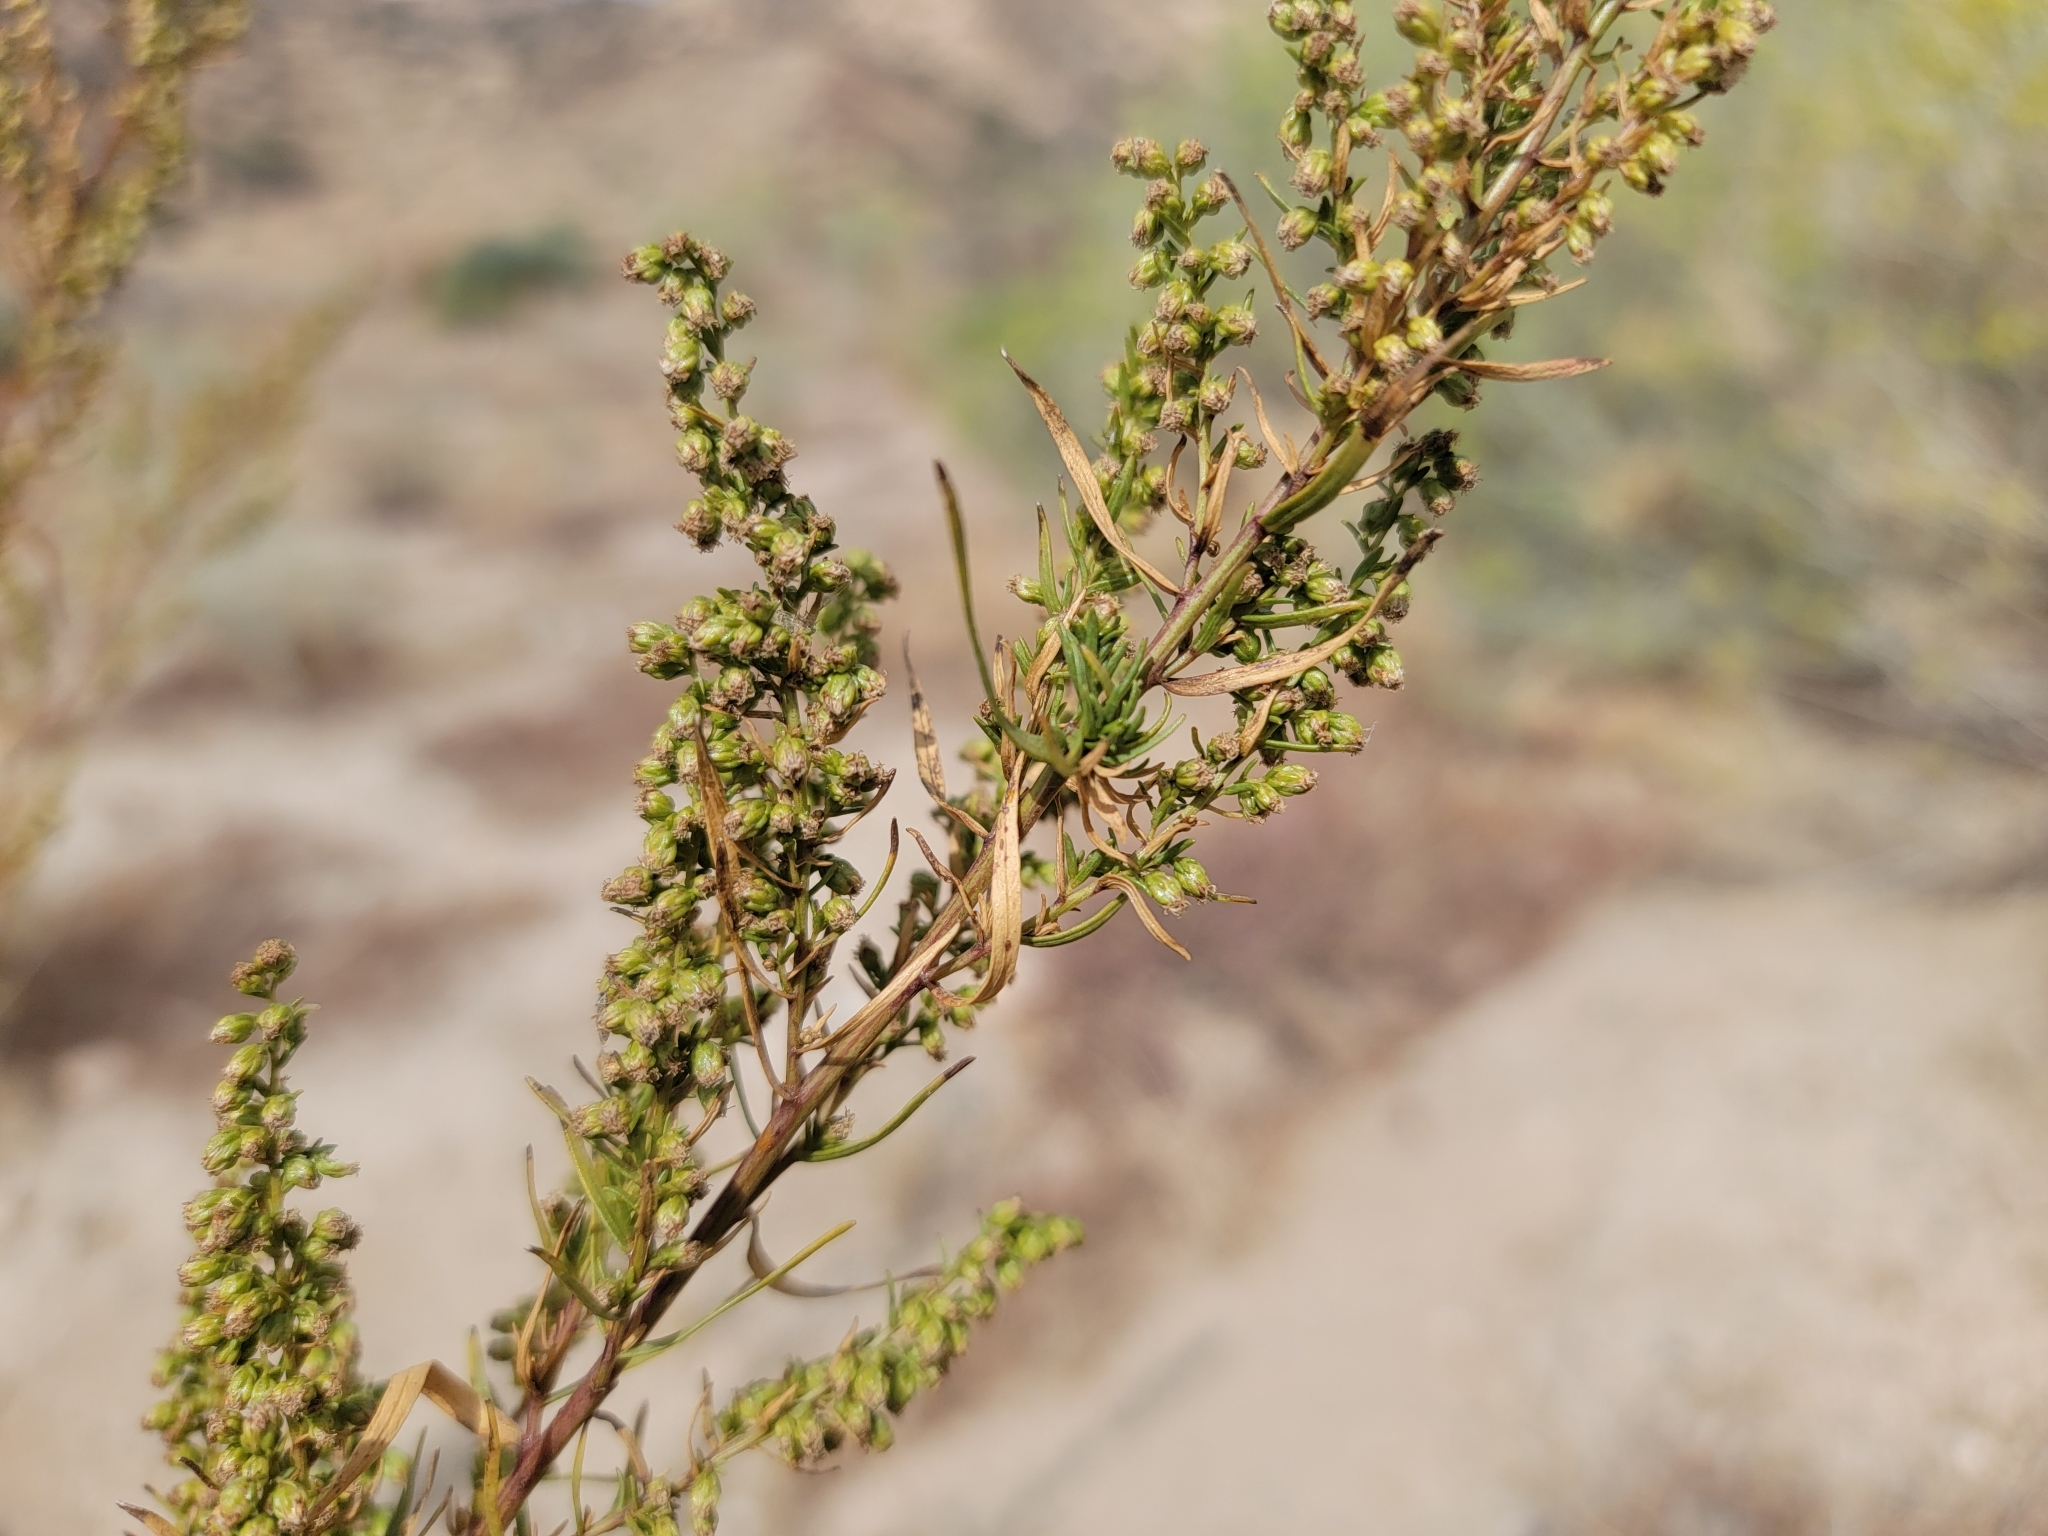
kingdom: Plantae
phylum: Tracheophyta
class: Magnoliopsida
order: Asterales
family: Asteraceae
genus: Artemisia
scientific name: Artemisia dracunculus
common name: Tarragon
